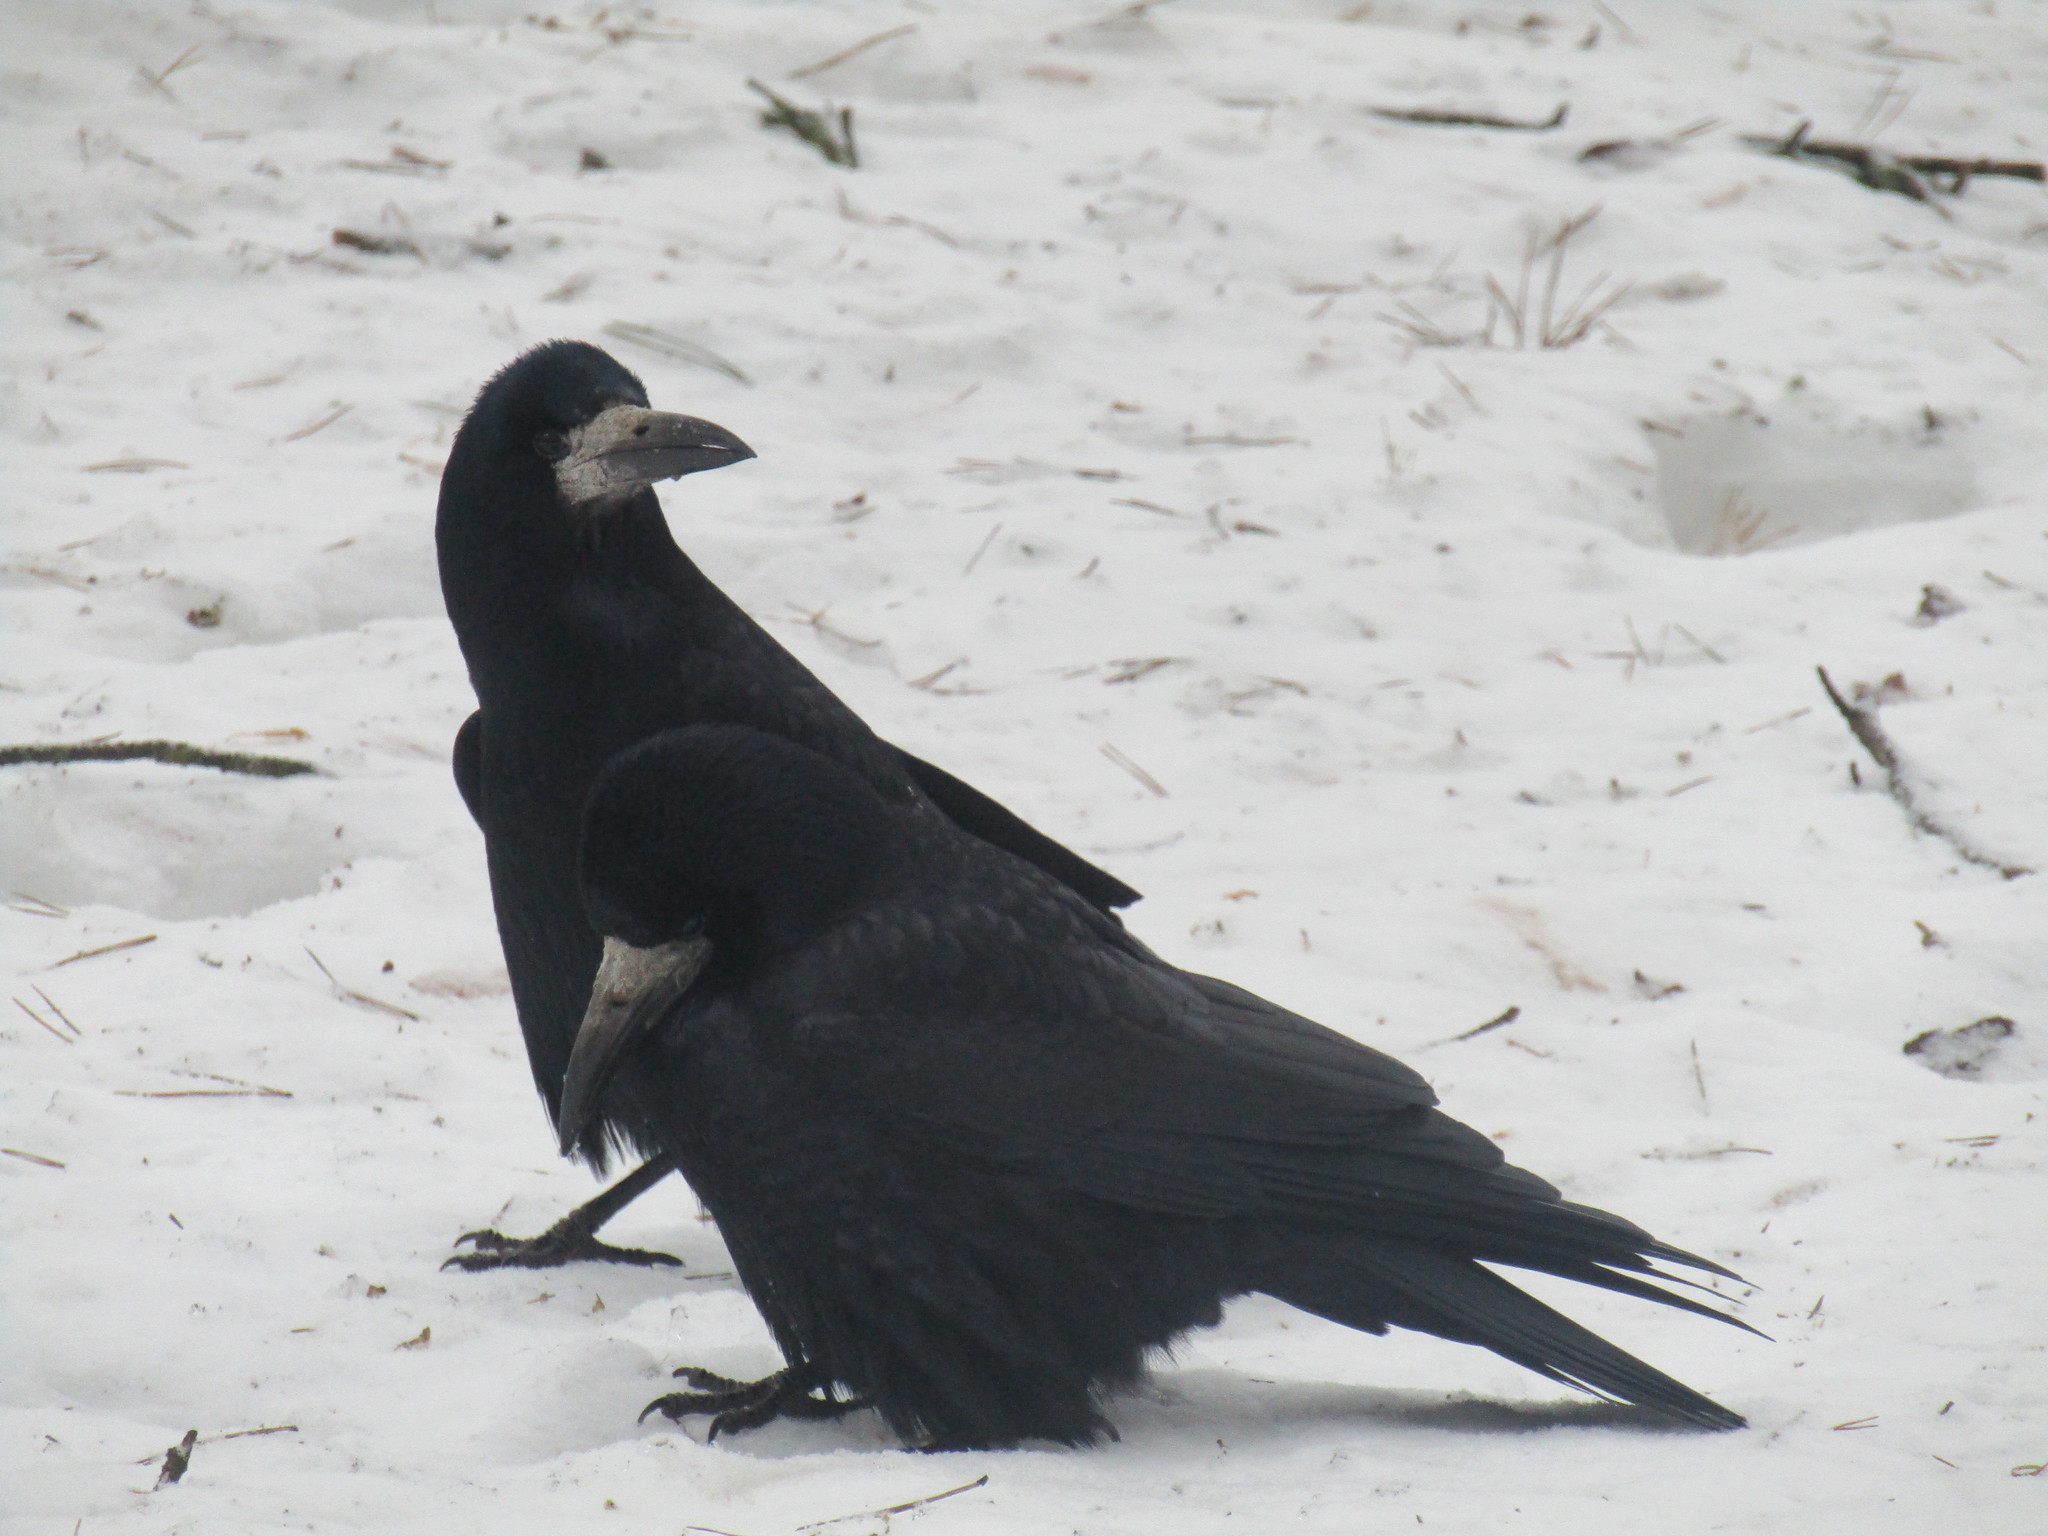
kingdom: Animalia
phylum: Chordata
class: Aves
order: Passeriformes
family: Corvidae
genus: Corvus
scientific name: Corvus frugilegus
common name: Rook
